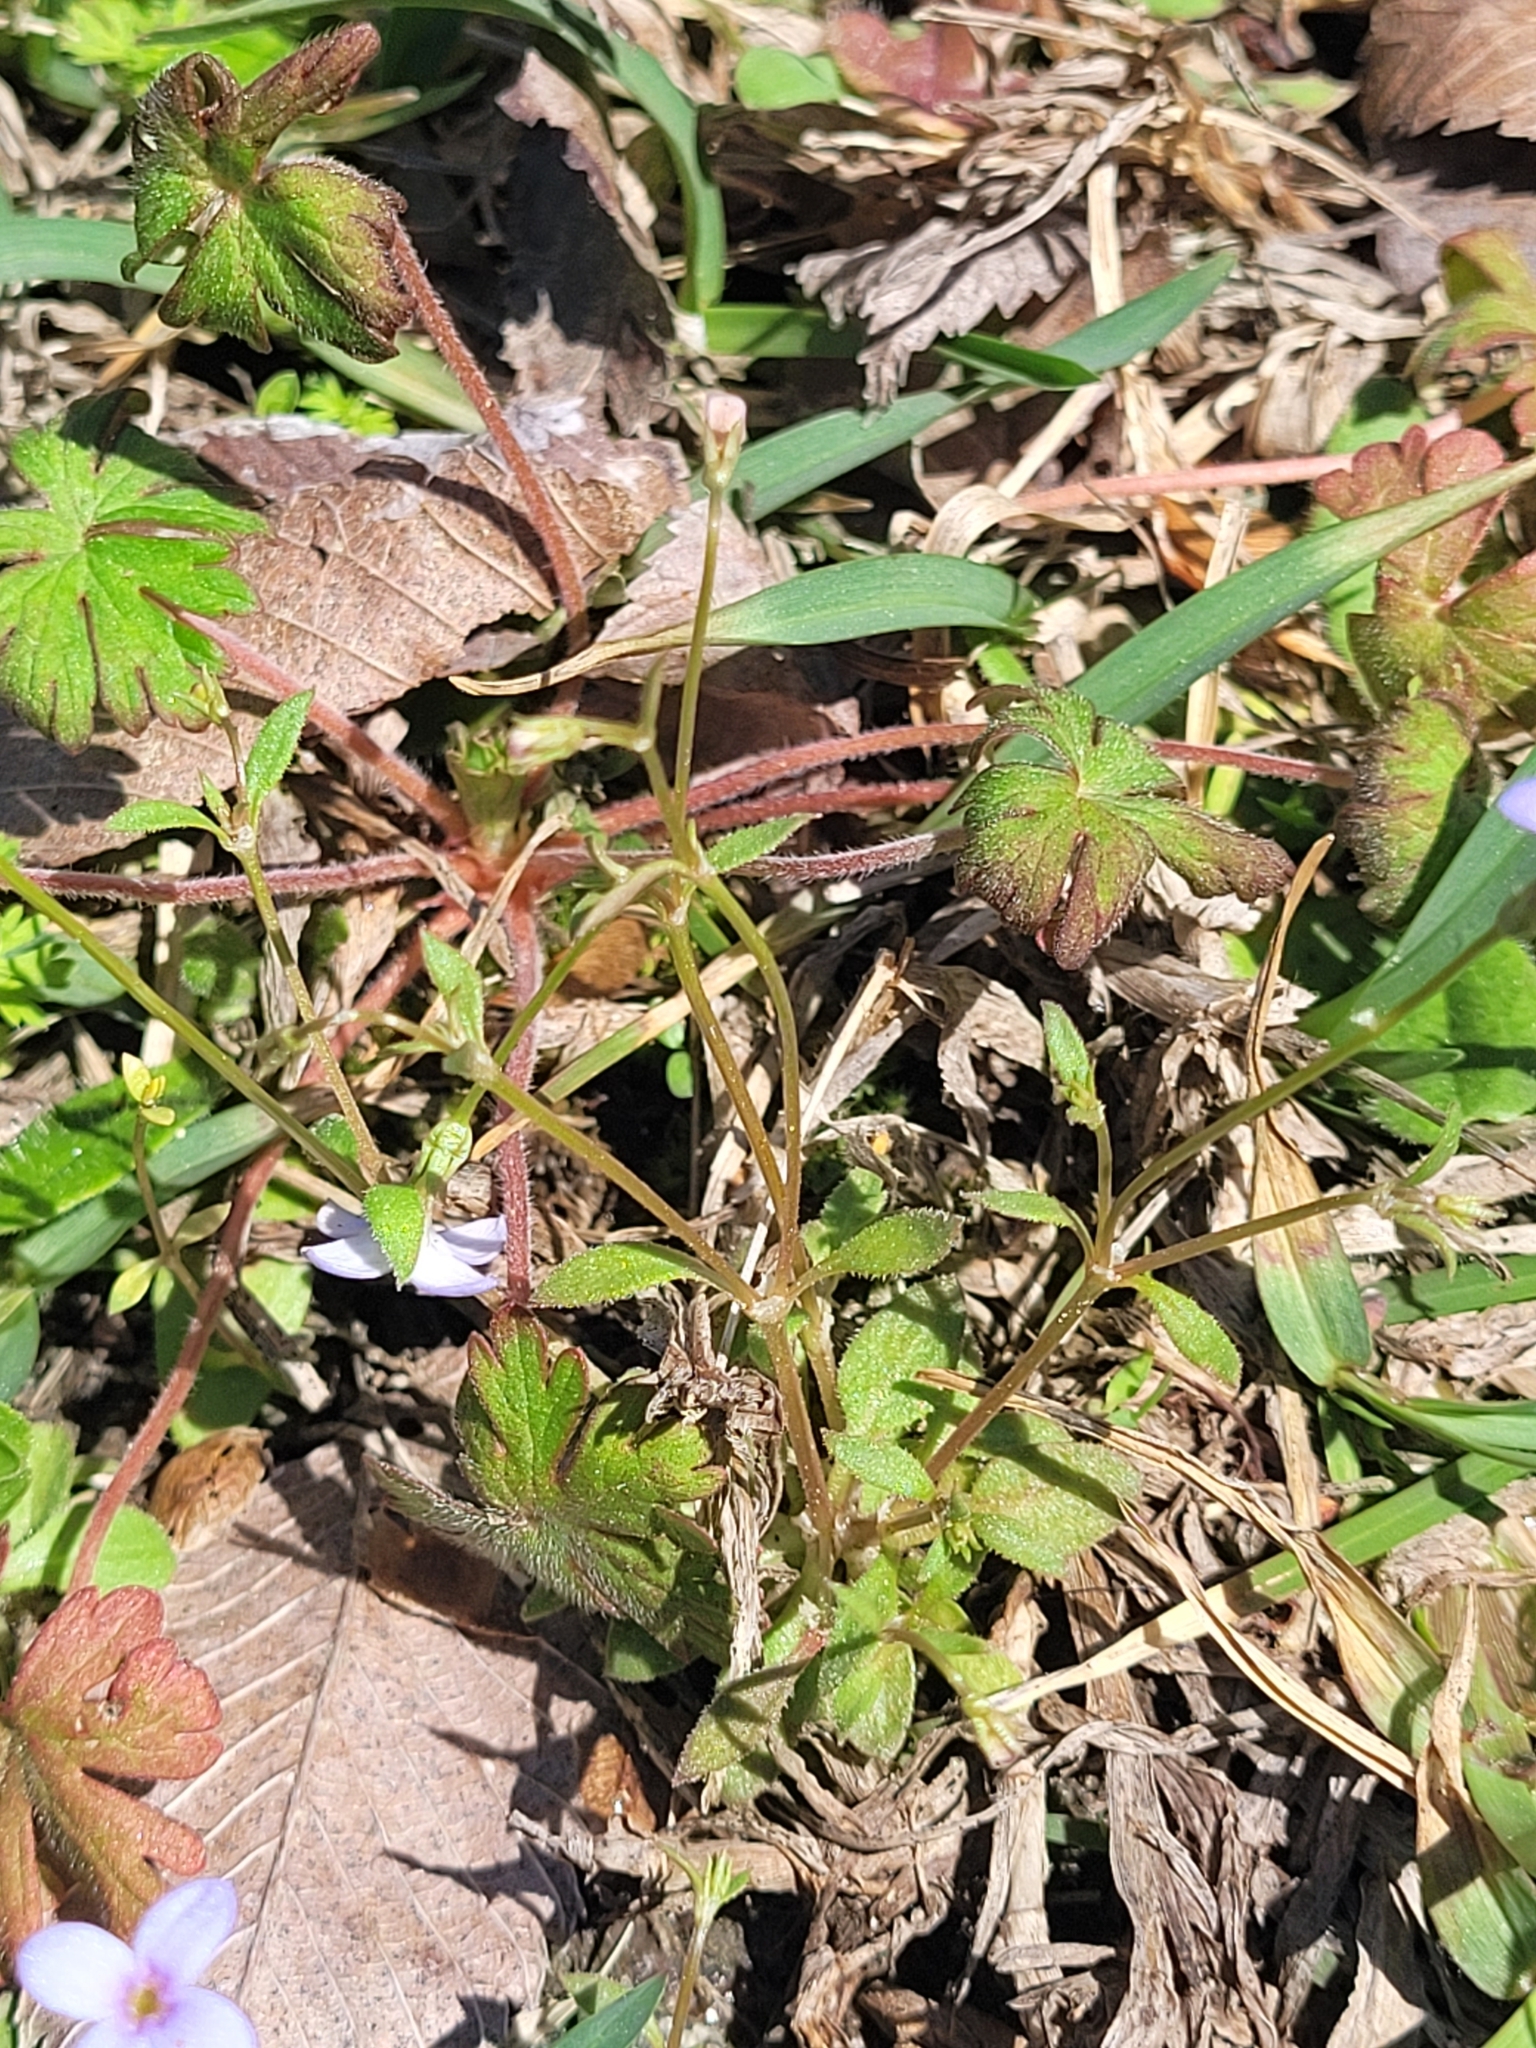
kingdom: Plantae
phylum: Tracheophyta
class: Magnoliopsida
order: Gentianales
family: Rubiaceae
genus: Houstonia
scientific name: Houstonia pusilla
